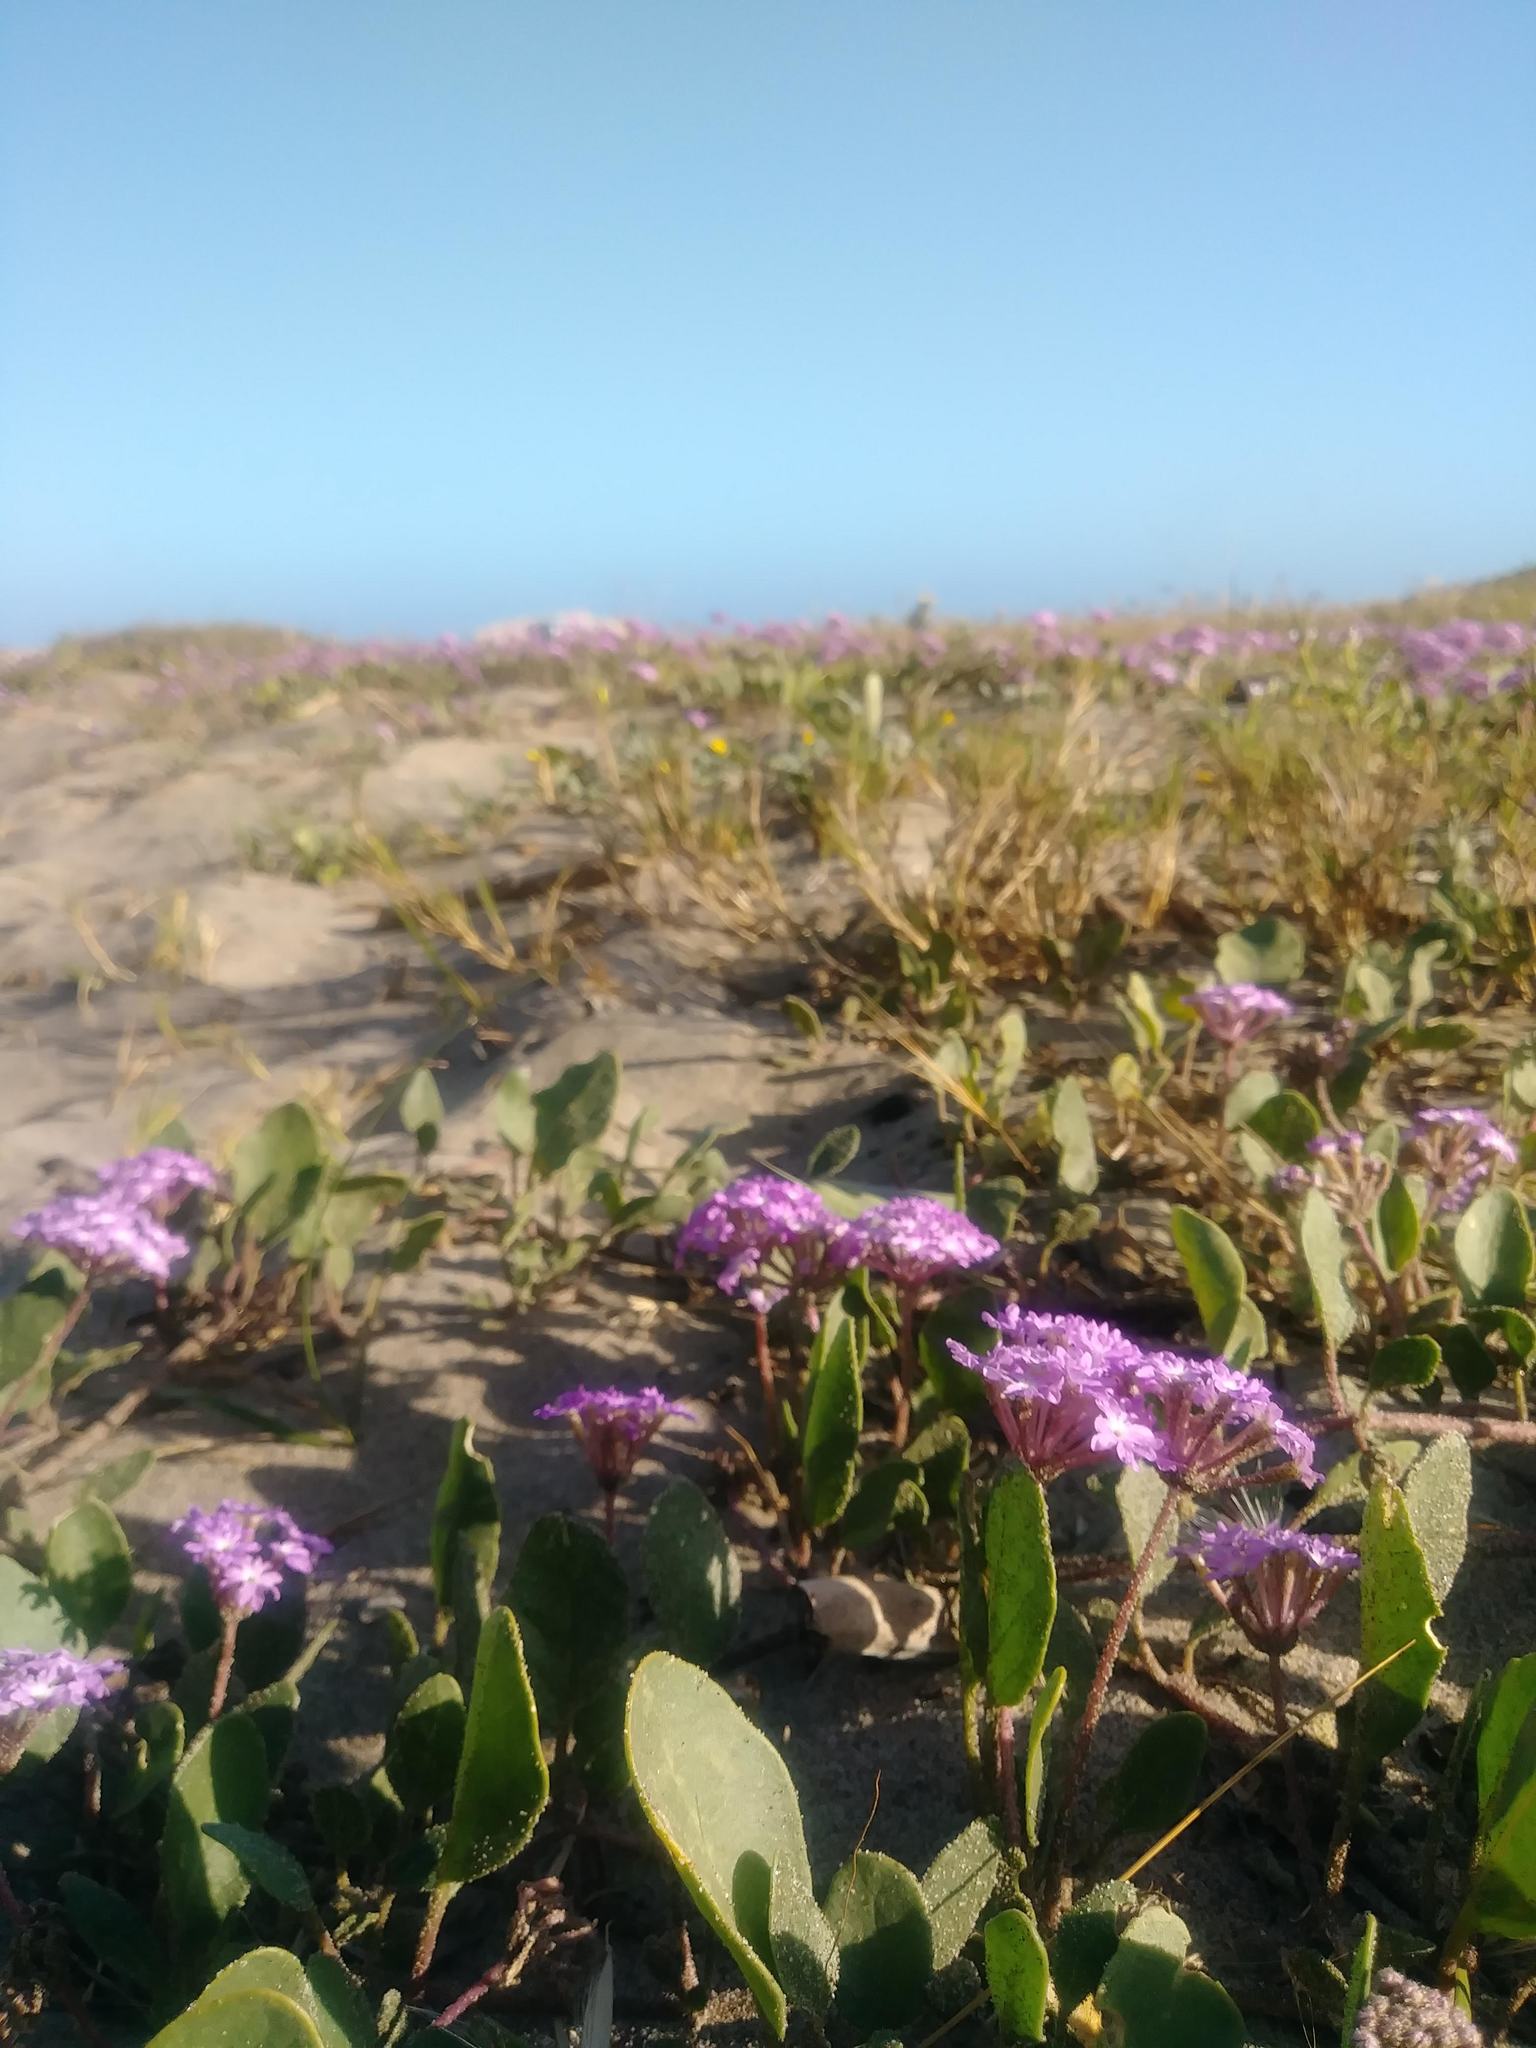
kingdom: Plantae
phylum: Tracheophyta
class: Magnoliopsida
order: Caryophyllales
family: Nyctaginaceae
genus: Abronia
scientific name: Abronia umbellata
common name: Sand-verbena
